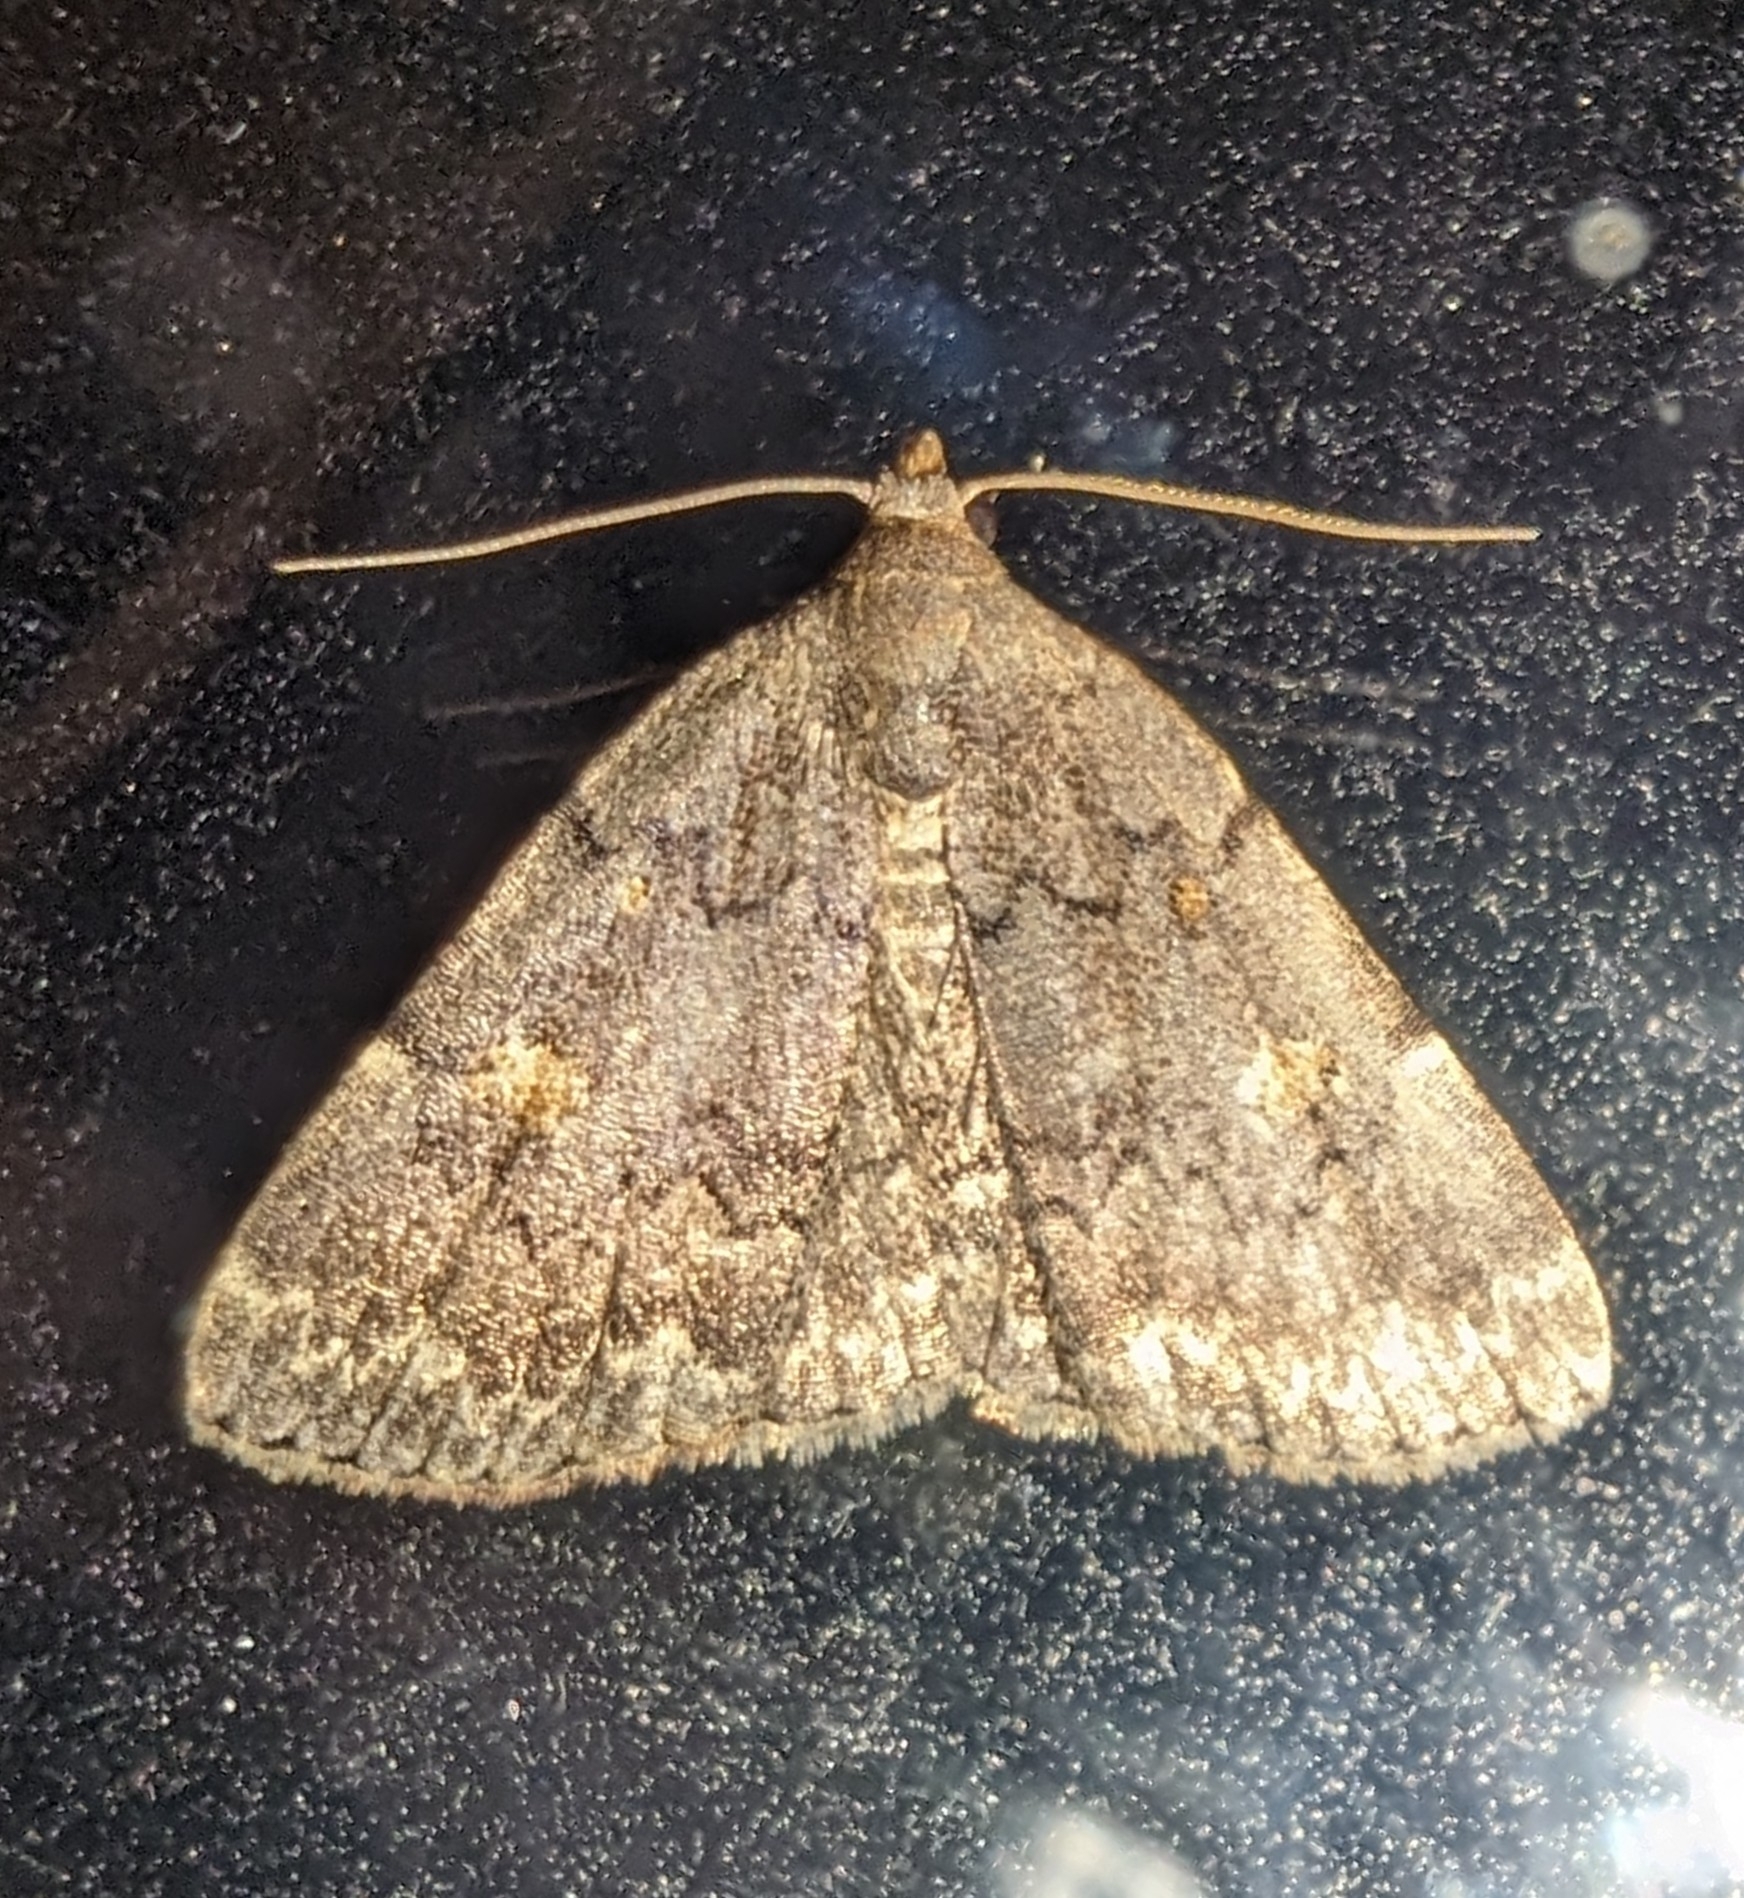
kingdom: Animalia
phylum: Arthropoda
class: Insecta
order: Lepidoptera
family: Erebidae
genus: Idia
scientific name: Idia aemula
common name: Common idia moth
